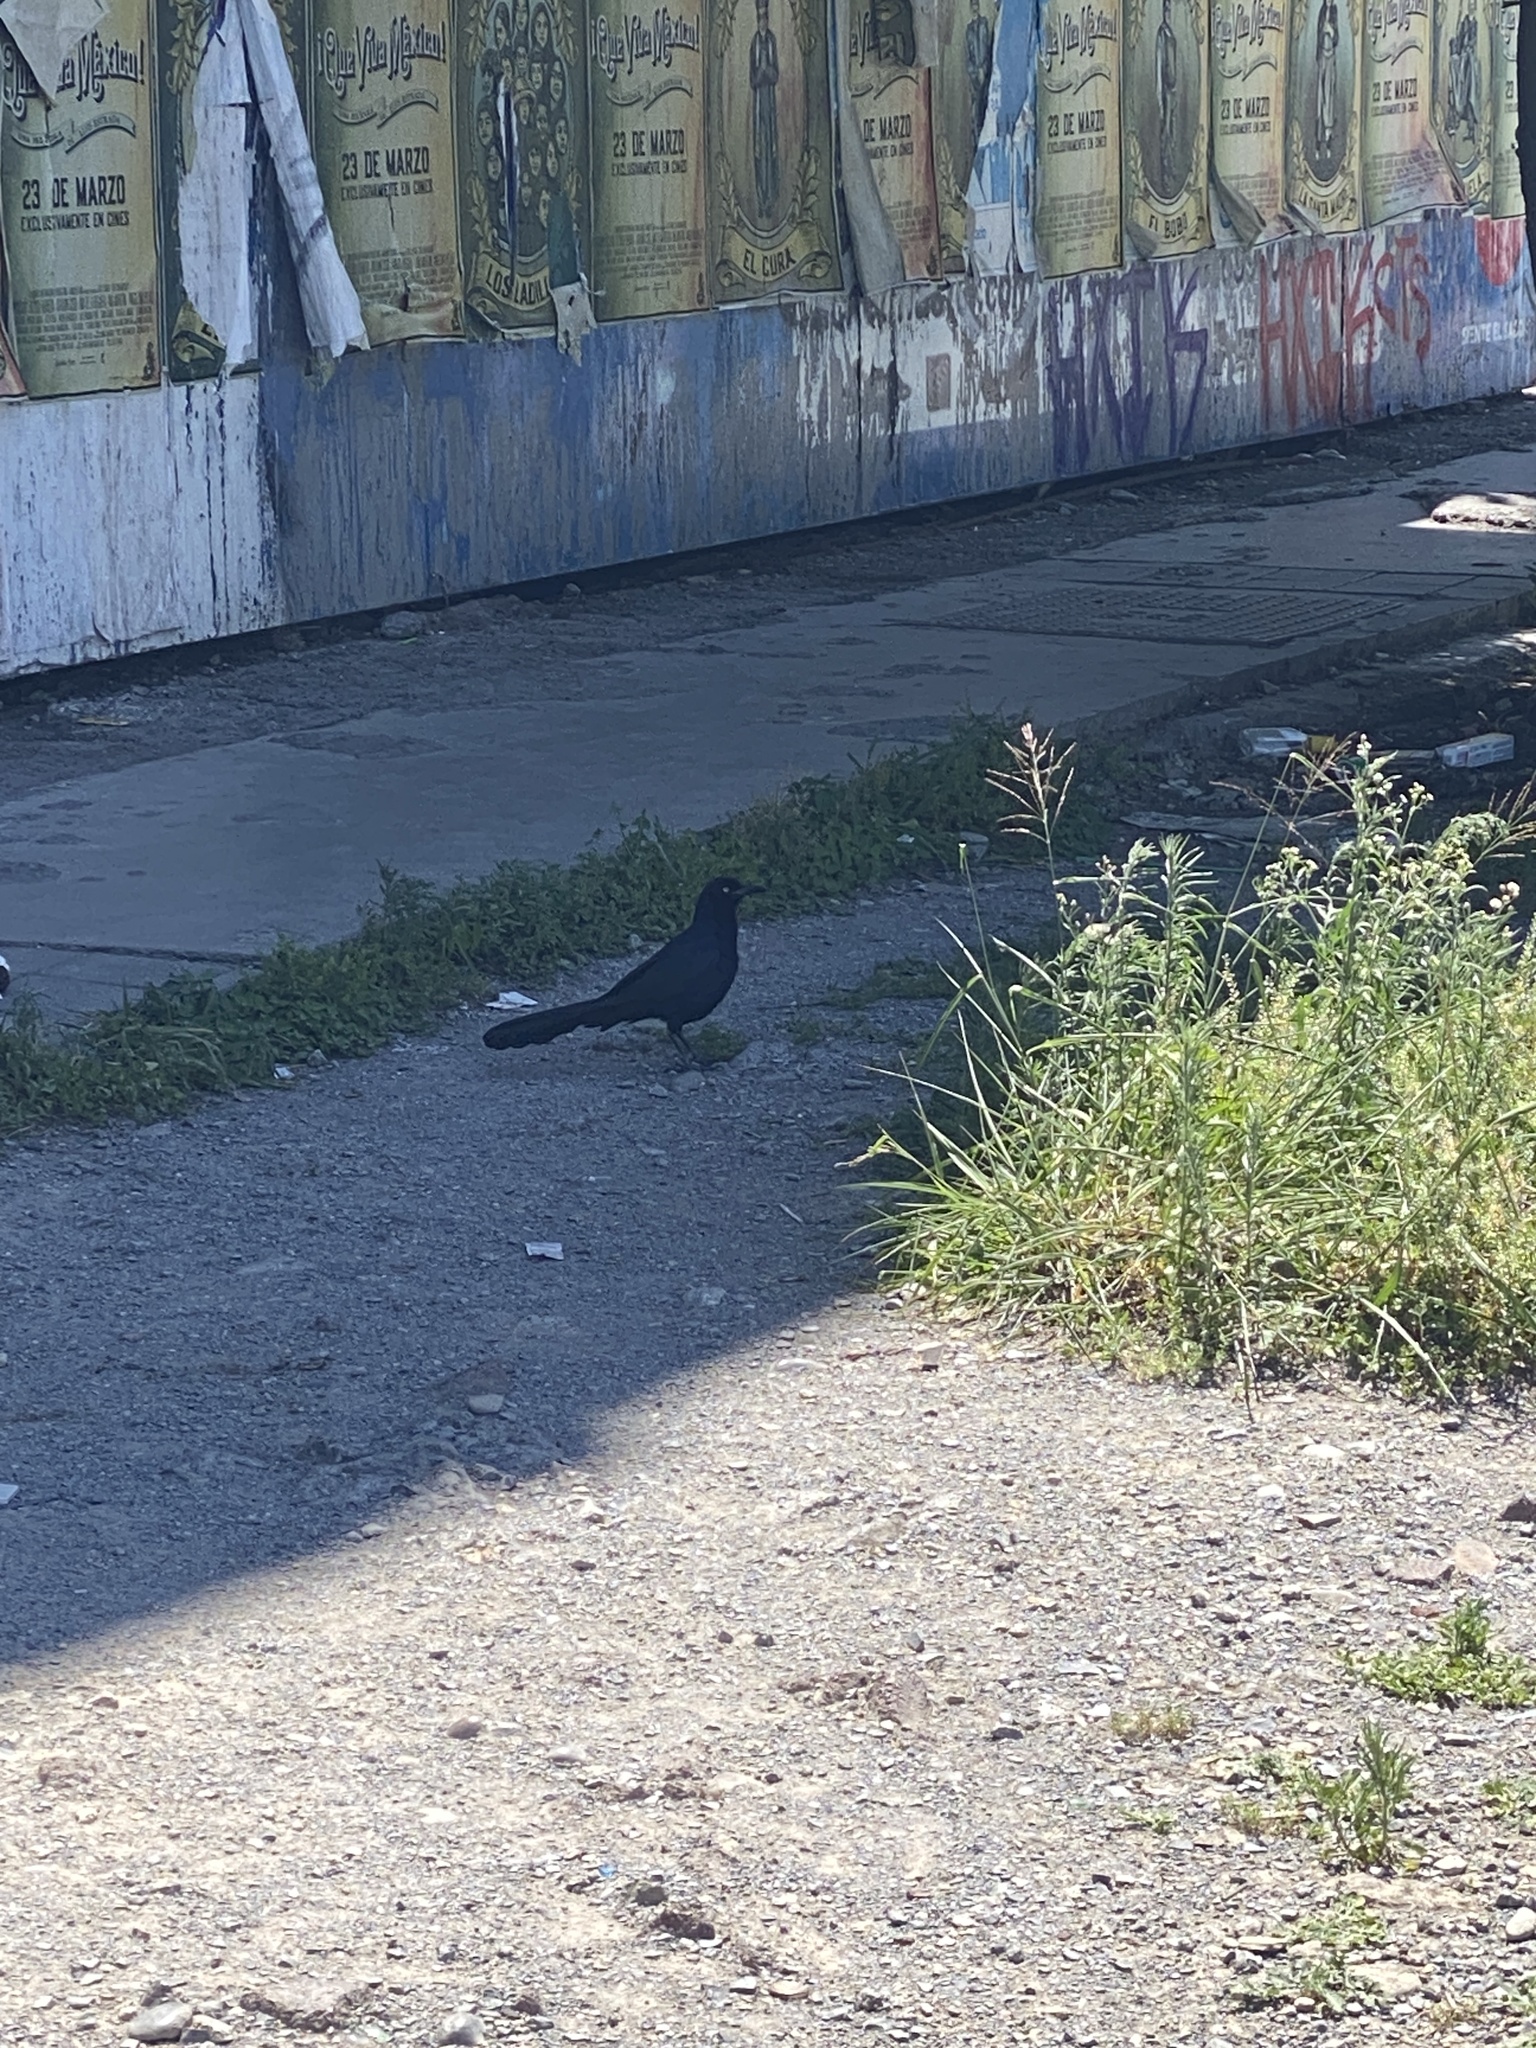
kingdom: Animalia
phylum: Chordata
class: Aves
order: Passeriformes
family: Icteridae
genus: Quiscalus
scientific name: Quiscalus mexicanus
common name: Great-tailed grackle
